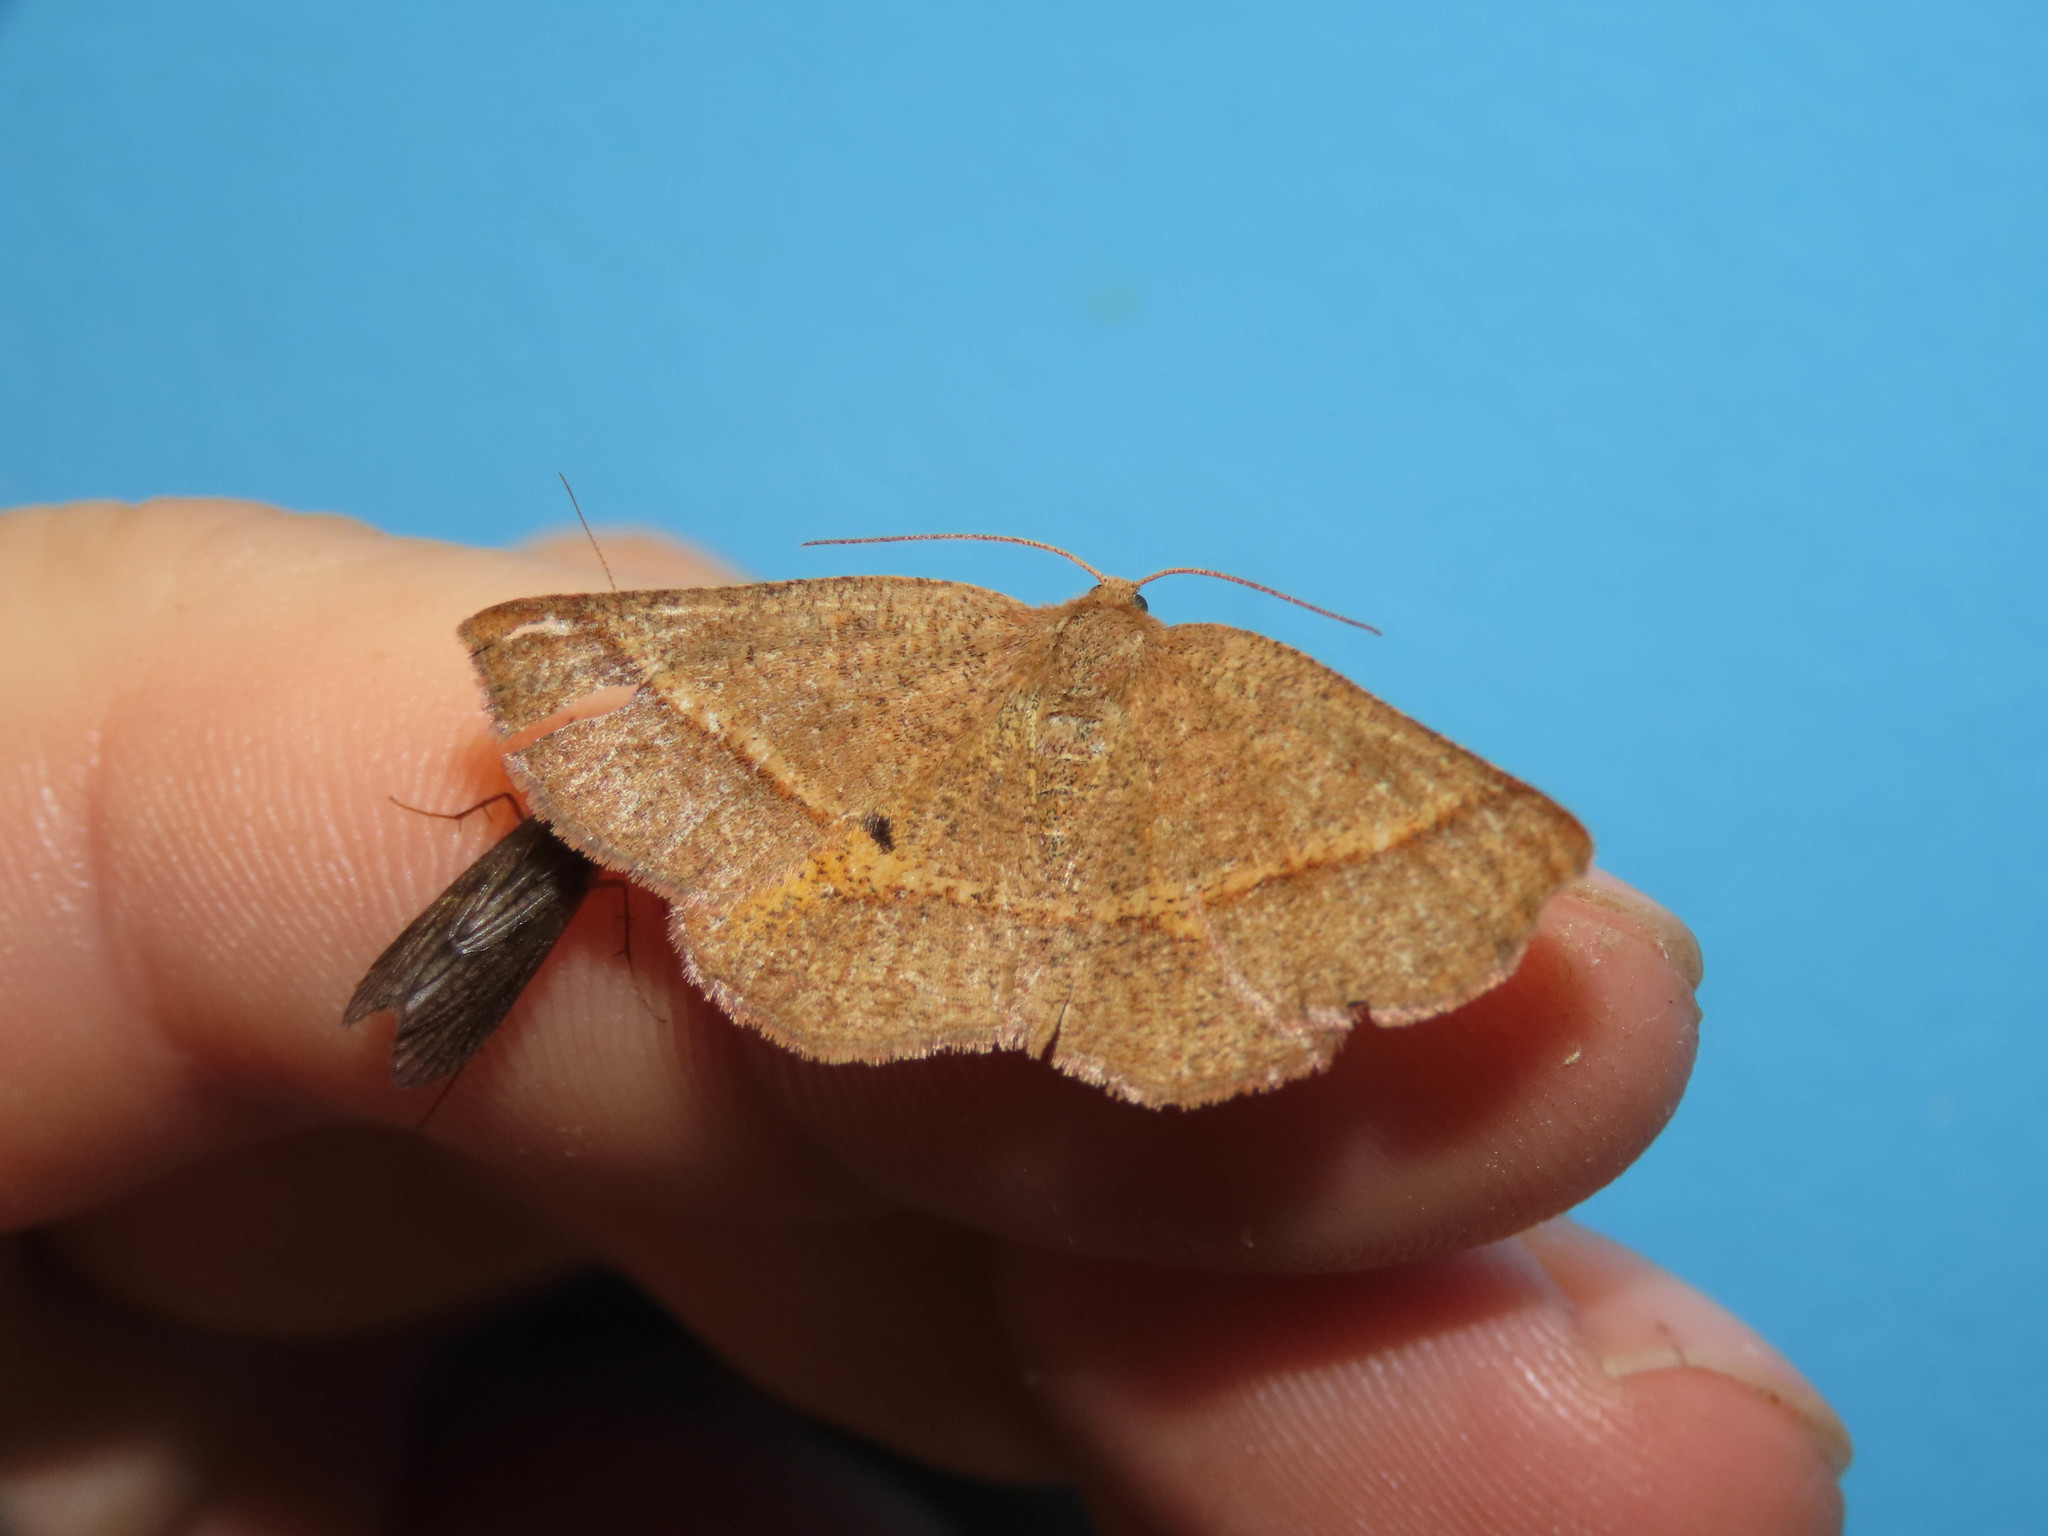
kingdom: Animalia
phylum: Arthropoda
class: Insecta
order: Lepidoptera
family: Geometridae
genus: Metarranthis
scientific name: Metarranthis obfirmaria
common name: Yellow-washed metarranthis
